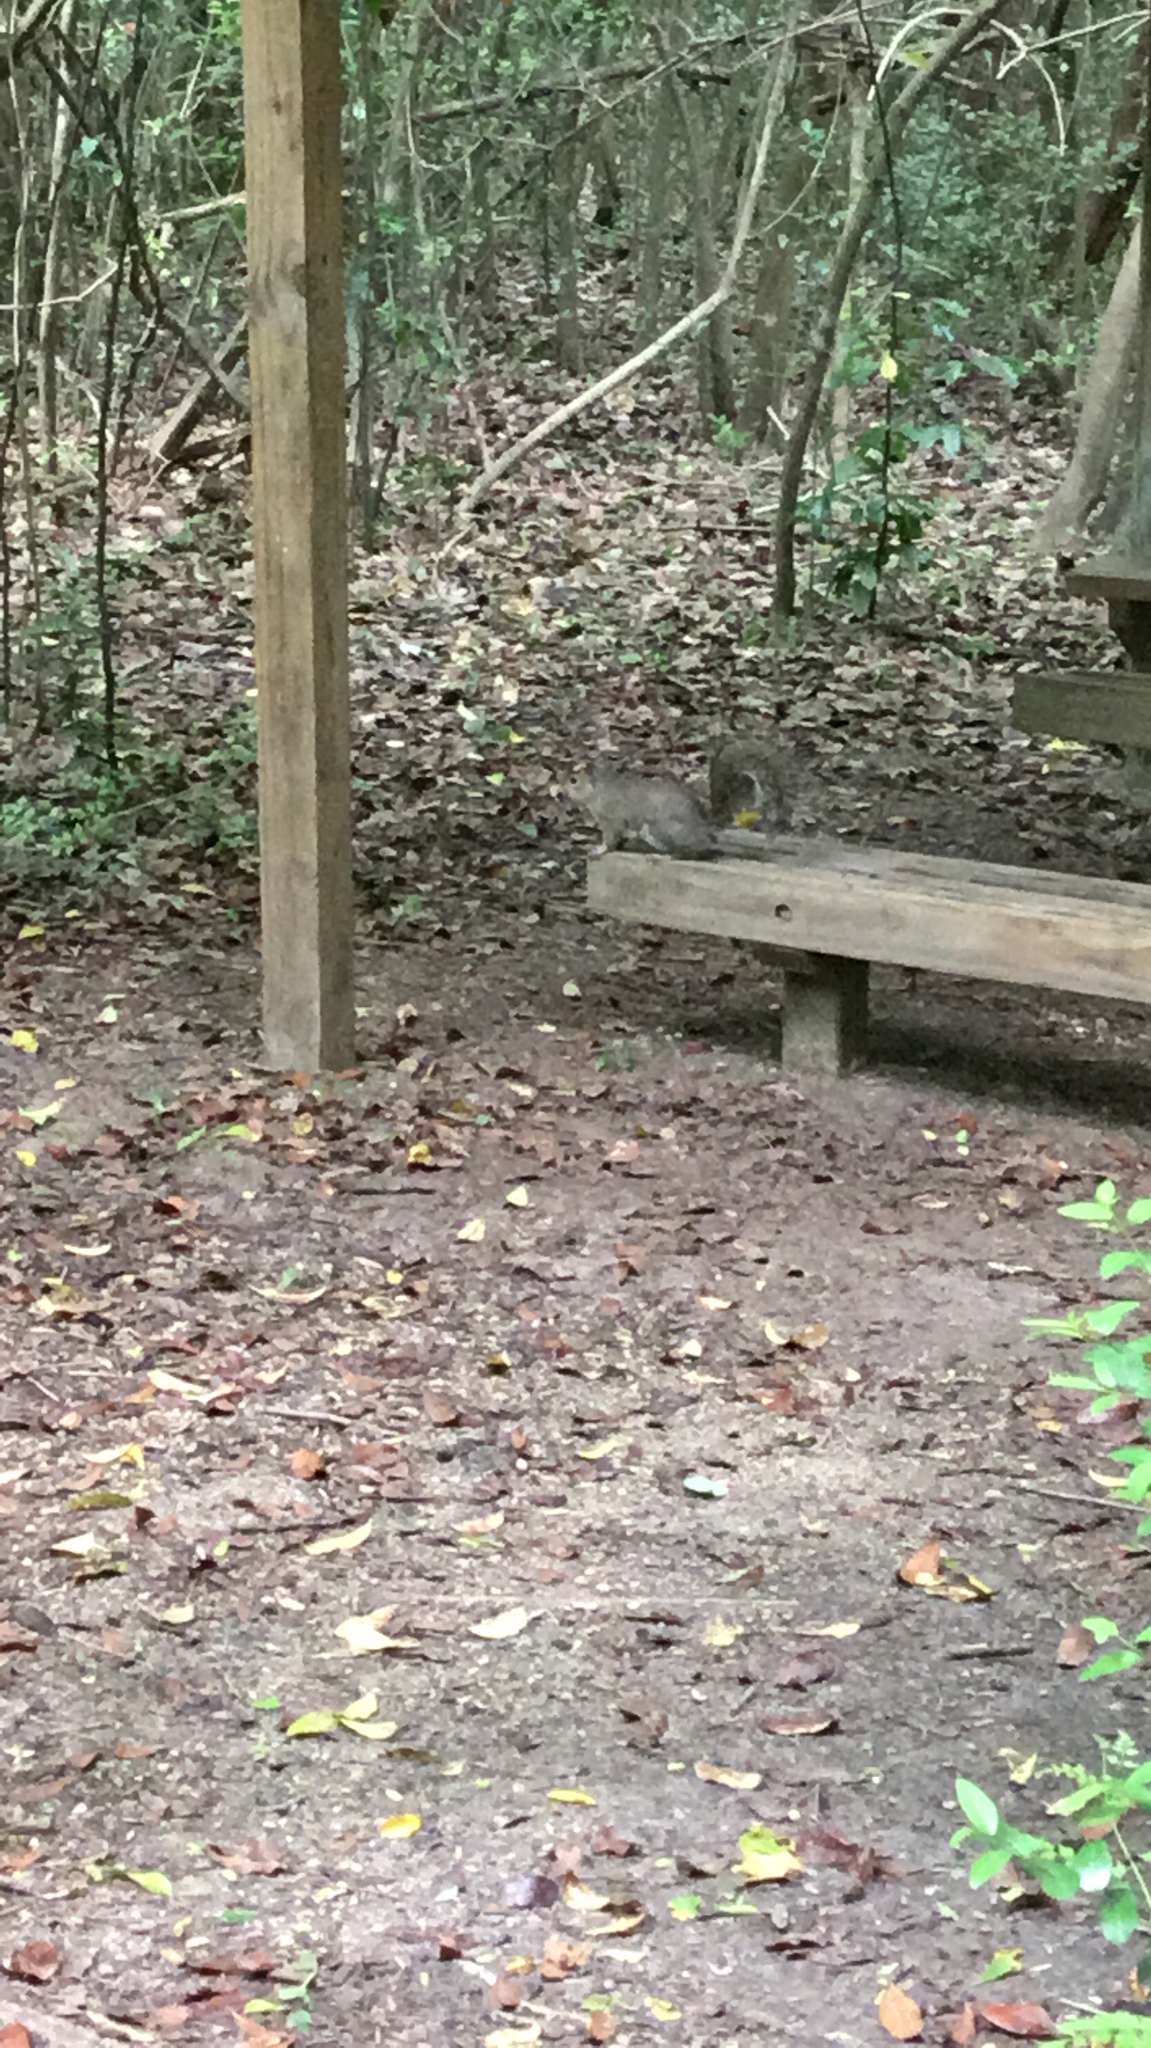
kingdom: Animalia
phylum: Chordata
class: Mammalia
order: Rodentia
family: Sciuridae
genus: Sciurus
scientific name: Sciurus carolinensis
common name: Eastern gray squirrel
